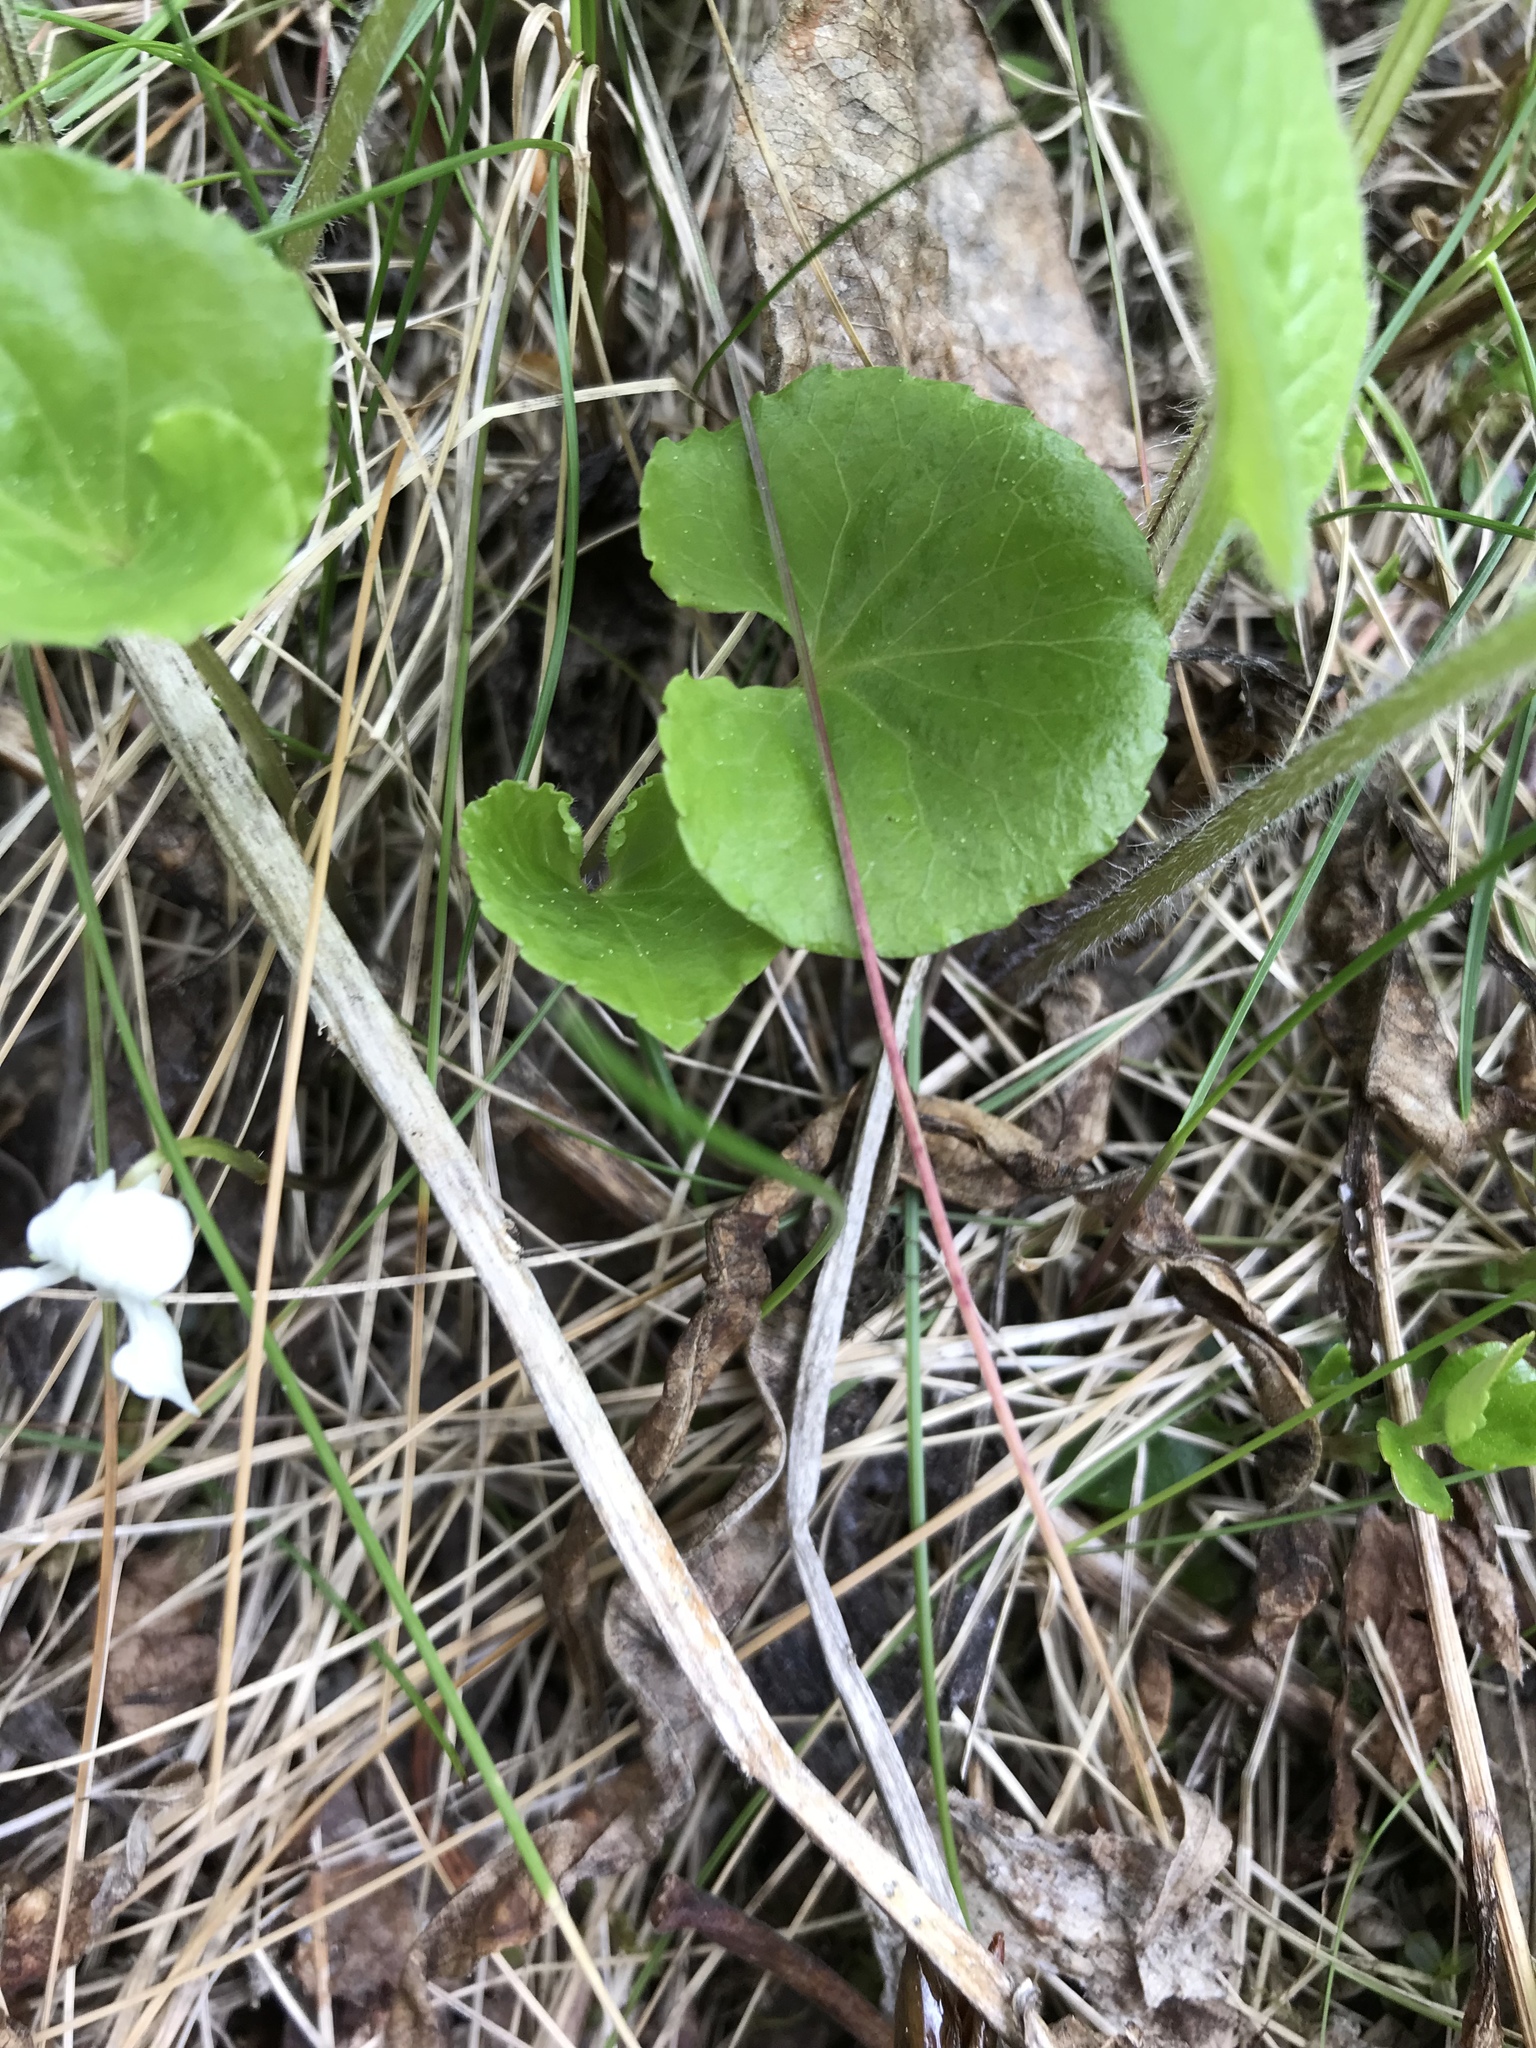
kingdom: Plantae
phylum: Tracheophyta
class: Magnoliopsida
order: Malpighiales
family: Violaceae
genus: Viola
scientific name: Viola renifolia
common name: Kidney-leaf violet
